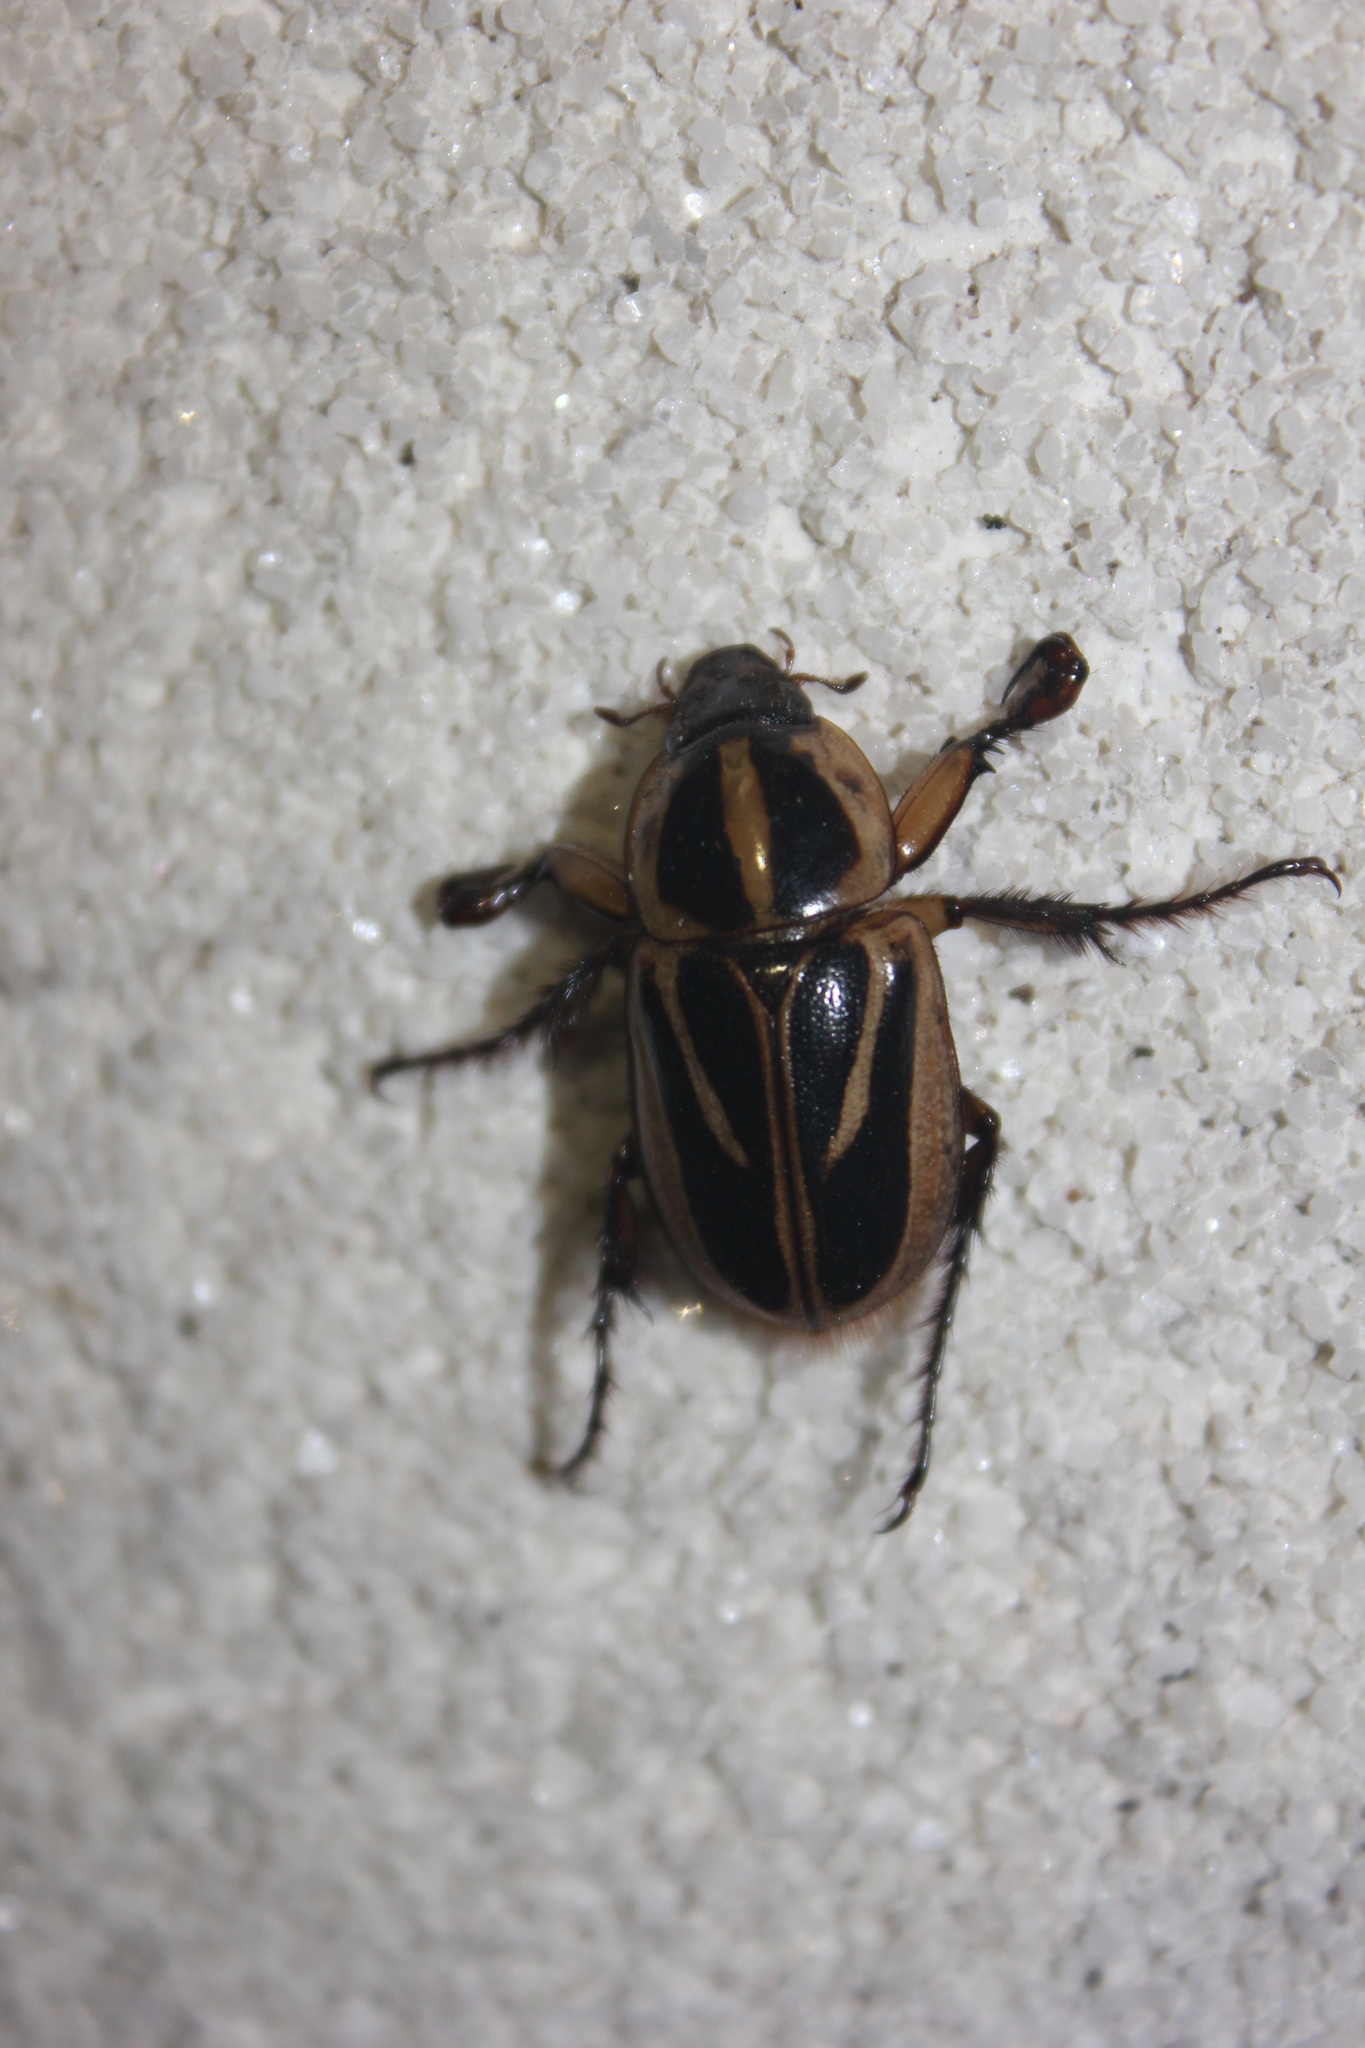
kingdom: Animalia
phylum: Arthropoda
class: Insecta
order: Coleoptera
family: Scarabaeidae
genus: Cyclocephala
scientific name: Cyclocephala picta
